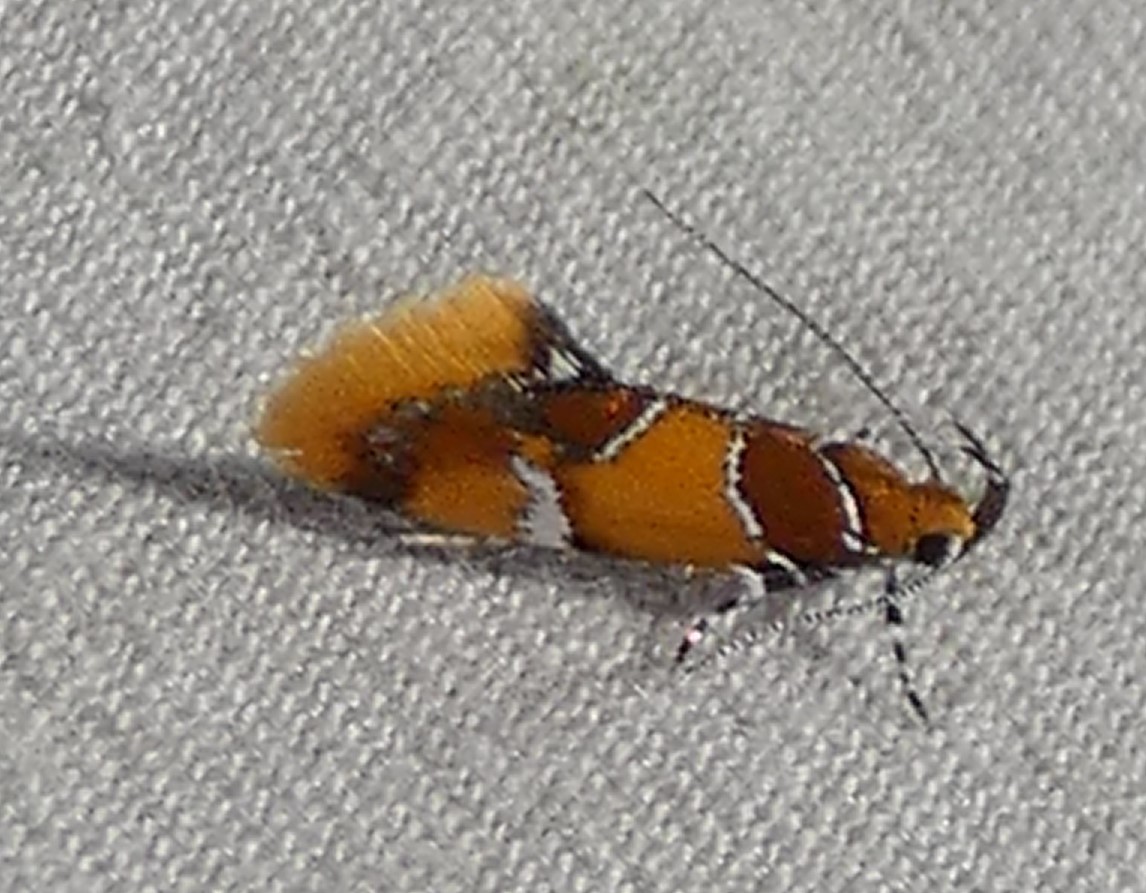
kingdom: Animalia
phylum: Arthropoda
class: Insecta
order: Lepidoptera
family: Oecophoridae
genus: Callima
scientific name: Callima argenticinctella
